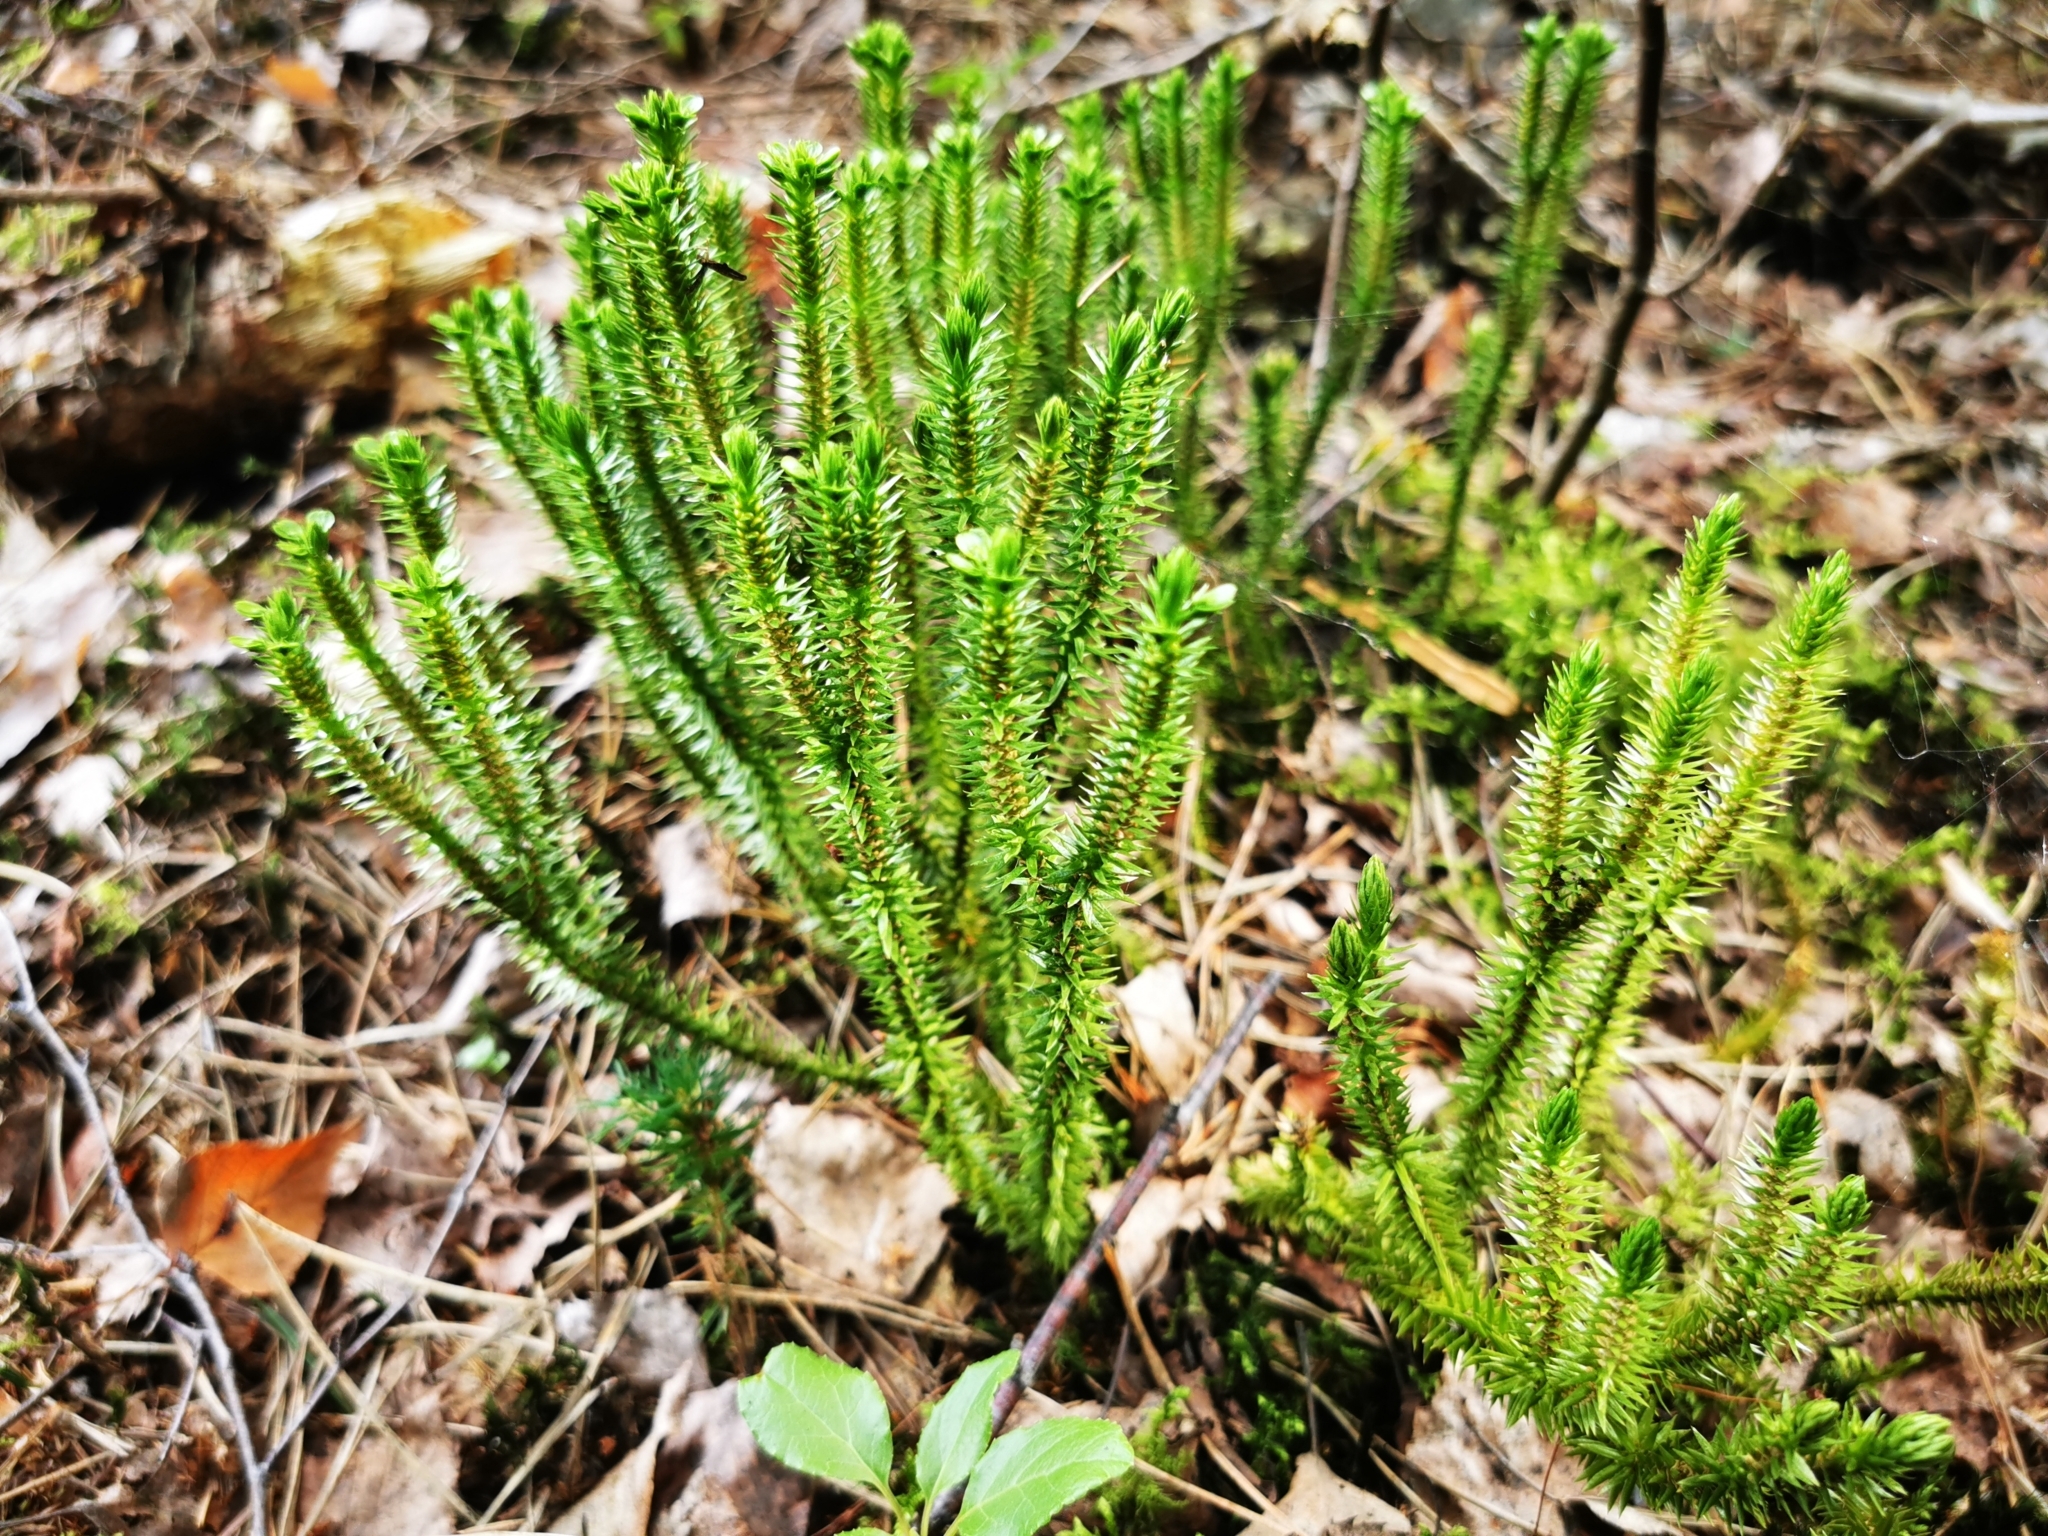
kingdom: Plantae
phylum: Tracheophyta
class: Lycopodiopsida
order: Lycopodiales
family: Lycopodiaceae
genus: Huperzia
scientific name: Huperzia selago
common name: Northern firmoss
